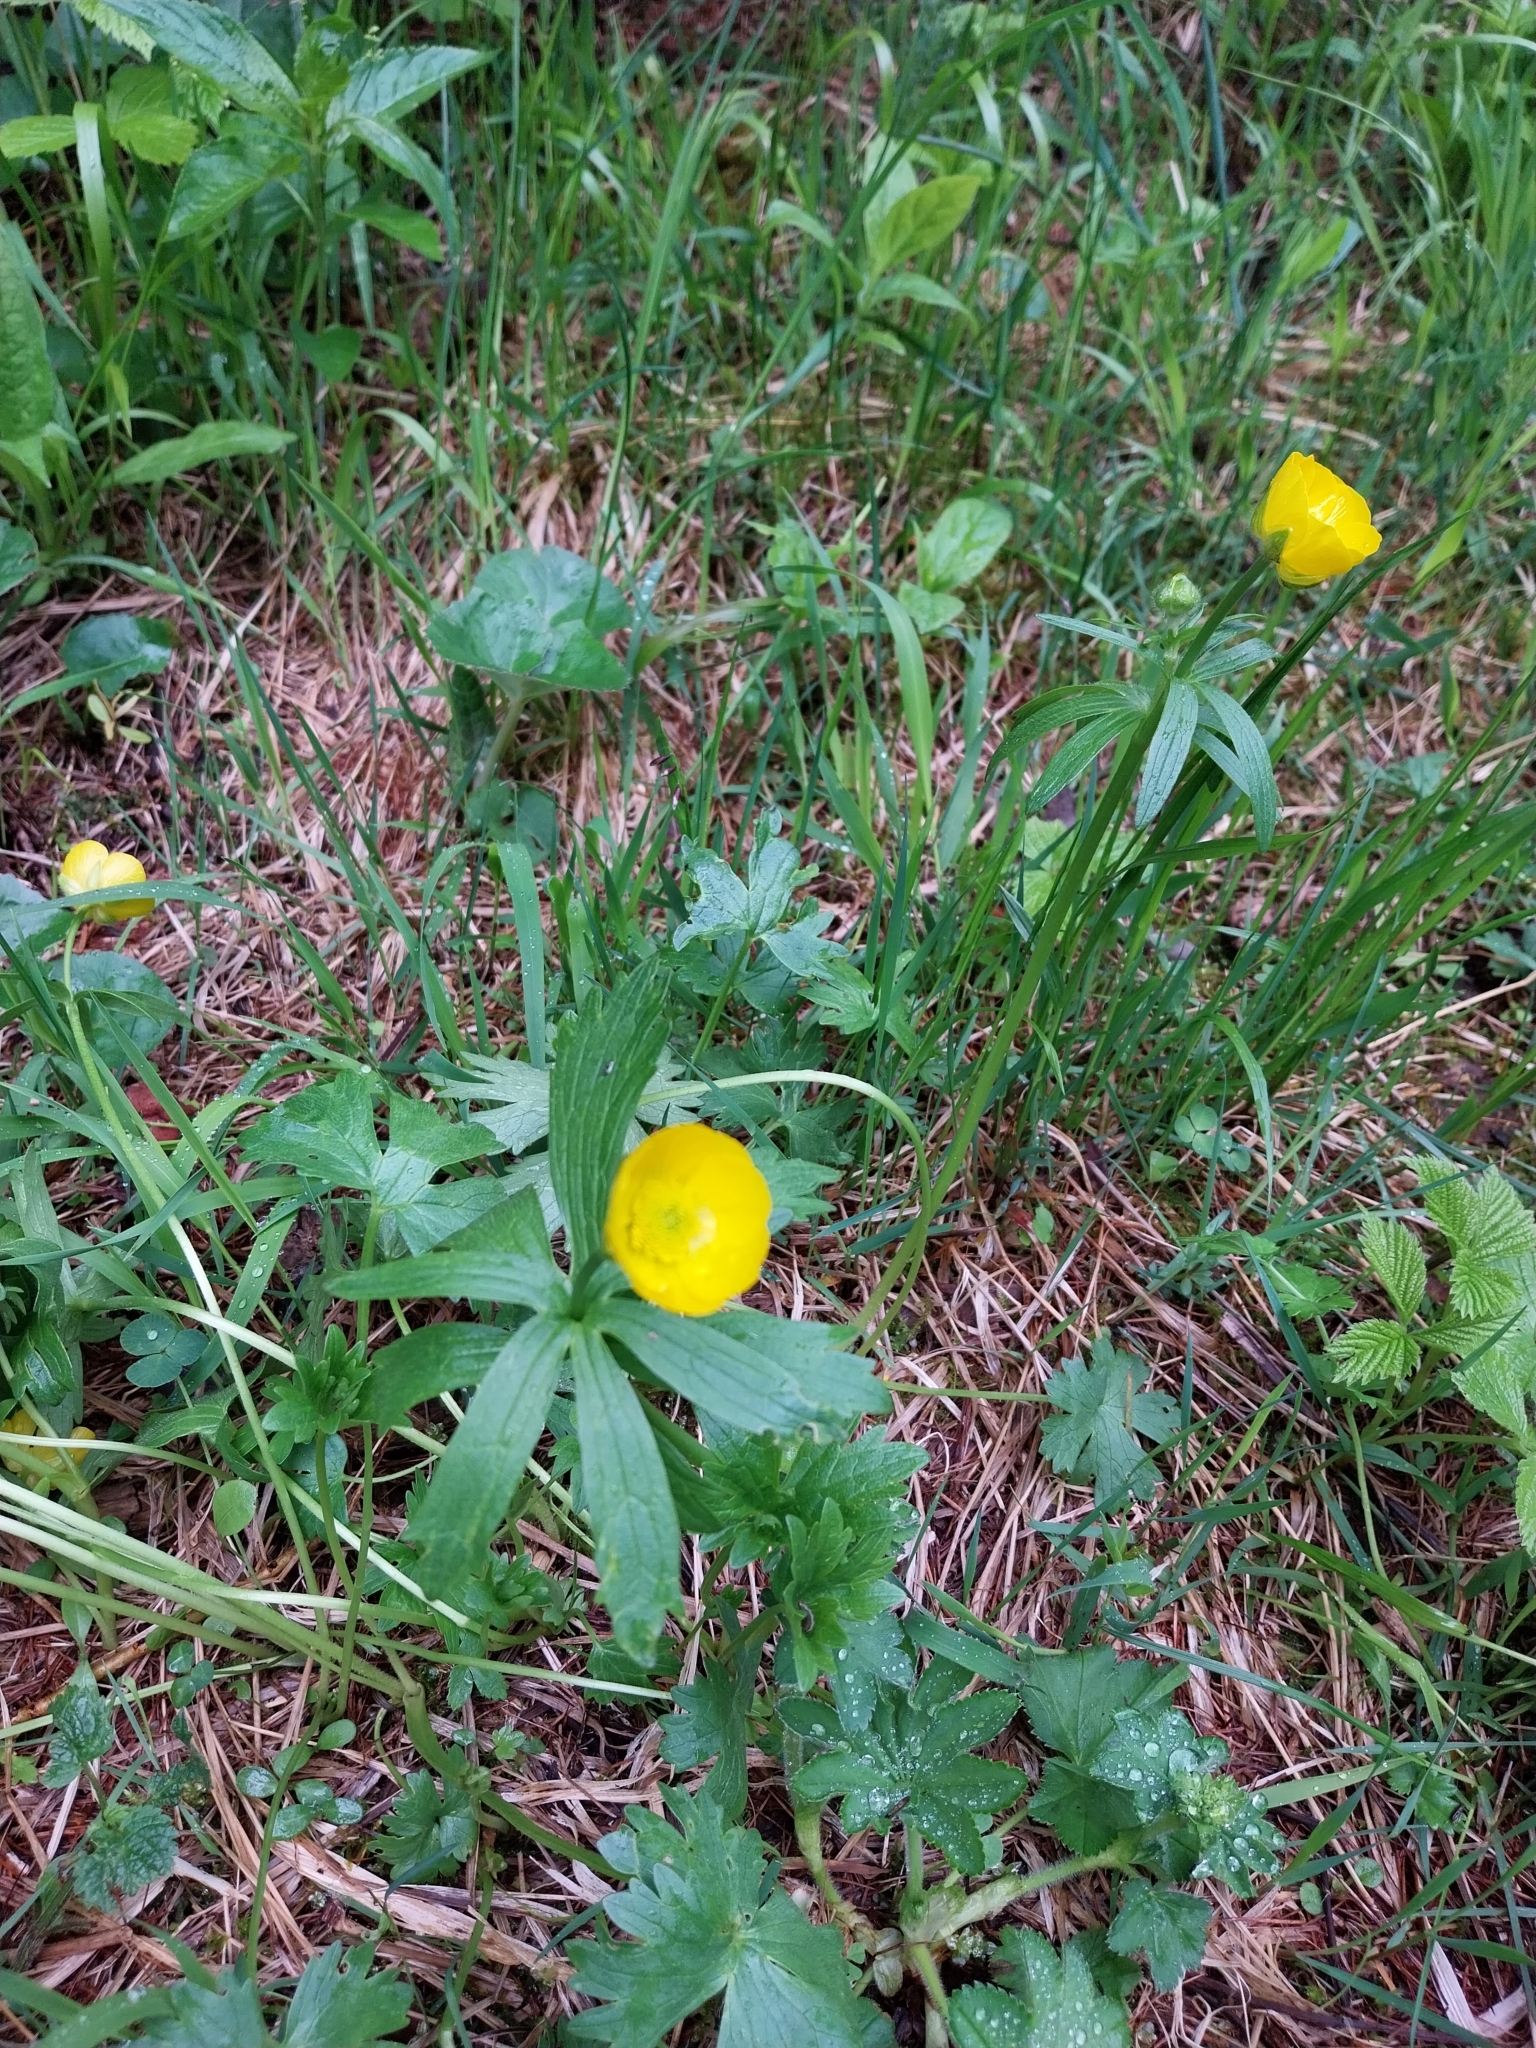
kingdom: Plantae
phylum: Tracheophyta
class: Magnoliopsida
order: Ranunculales
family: Ranunculaceae
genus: Anemone
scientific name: Anemone ranunculoides
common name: Yellow anemone
